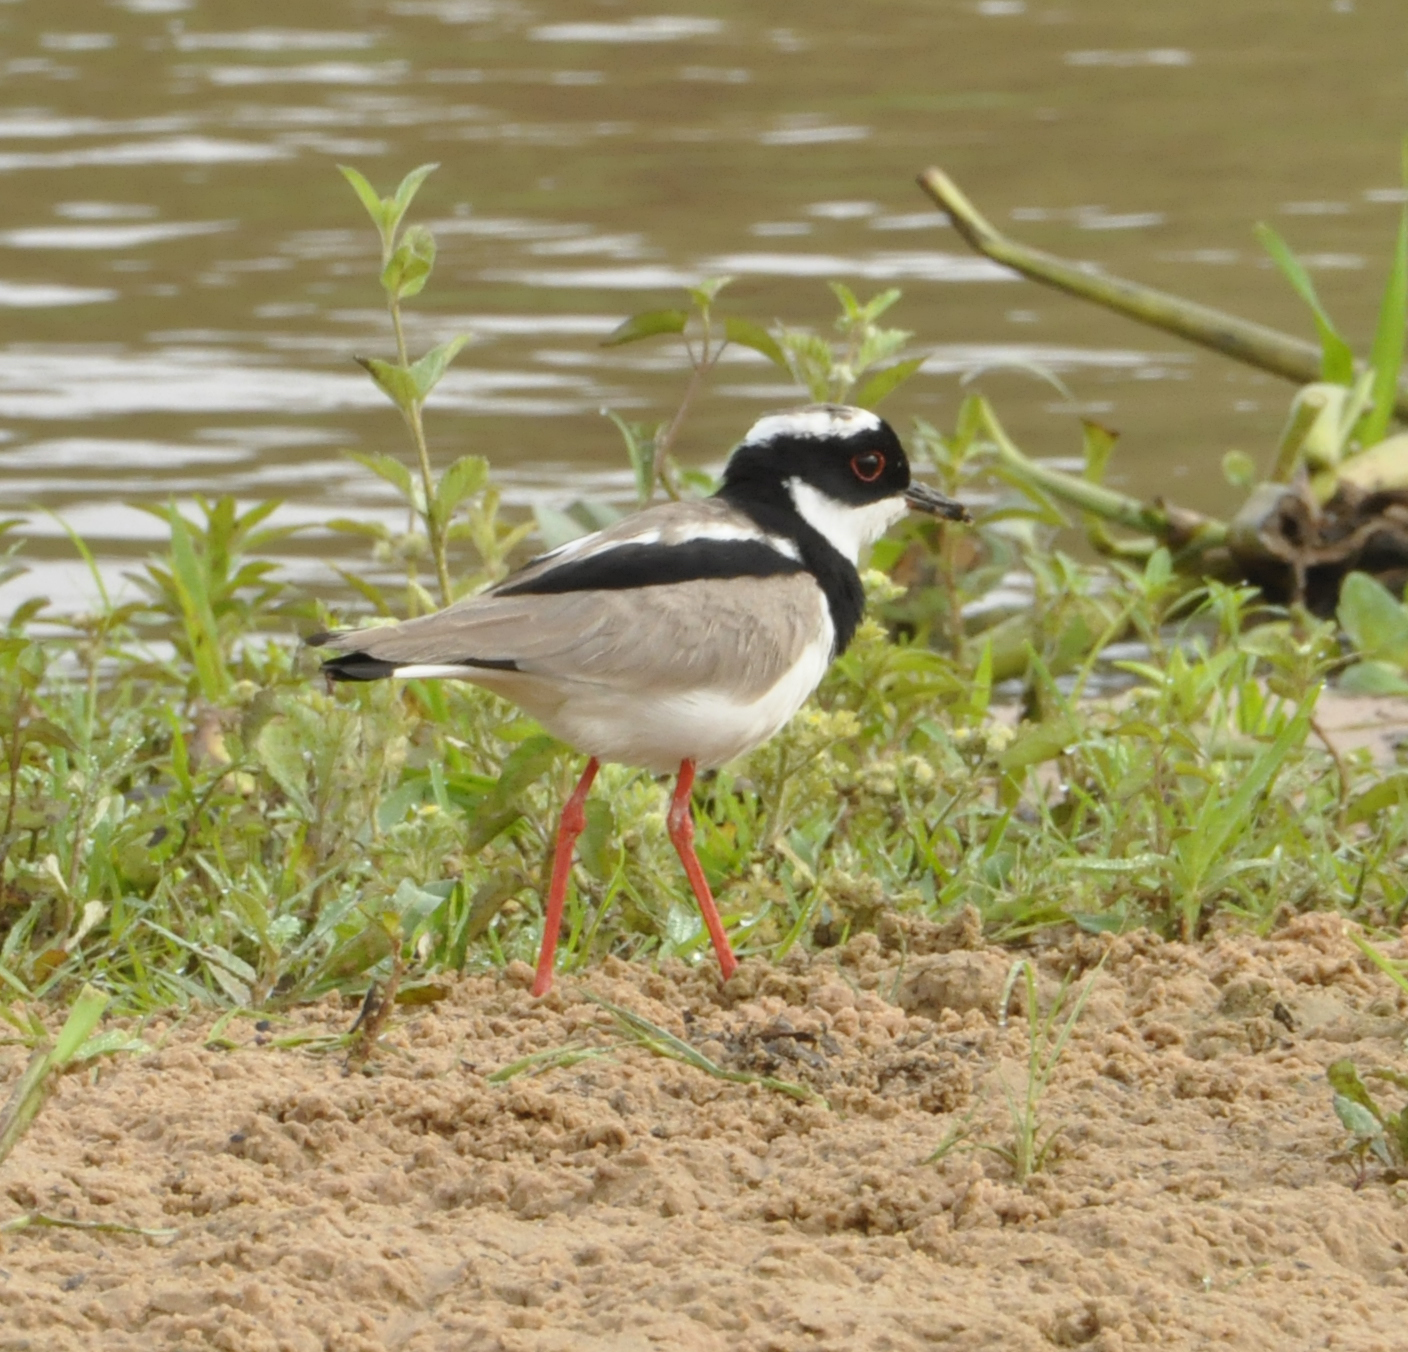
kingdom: Animalia
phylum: Chordata
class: Aves
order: Charadriiformes
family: Charadriidae
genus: Hoploxypterus
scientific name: Hoploxypterus cayanus
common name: Pied plover
